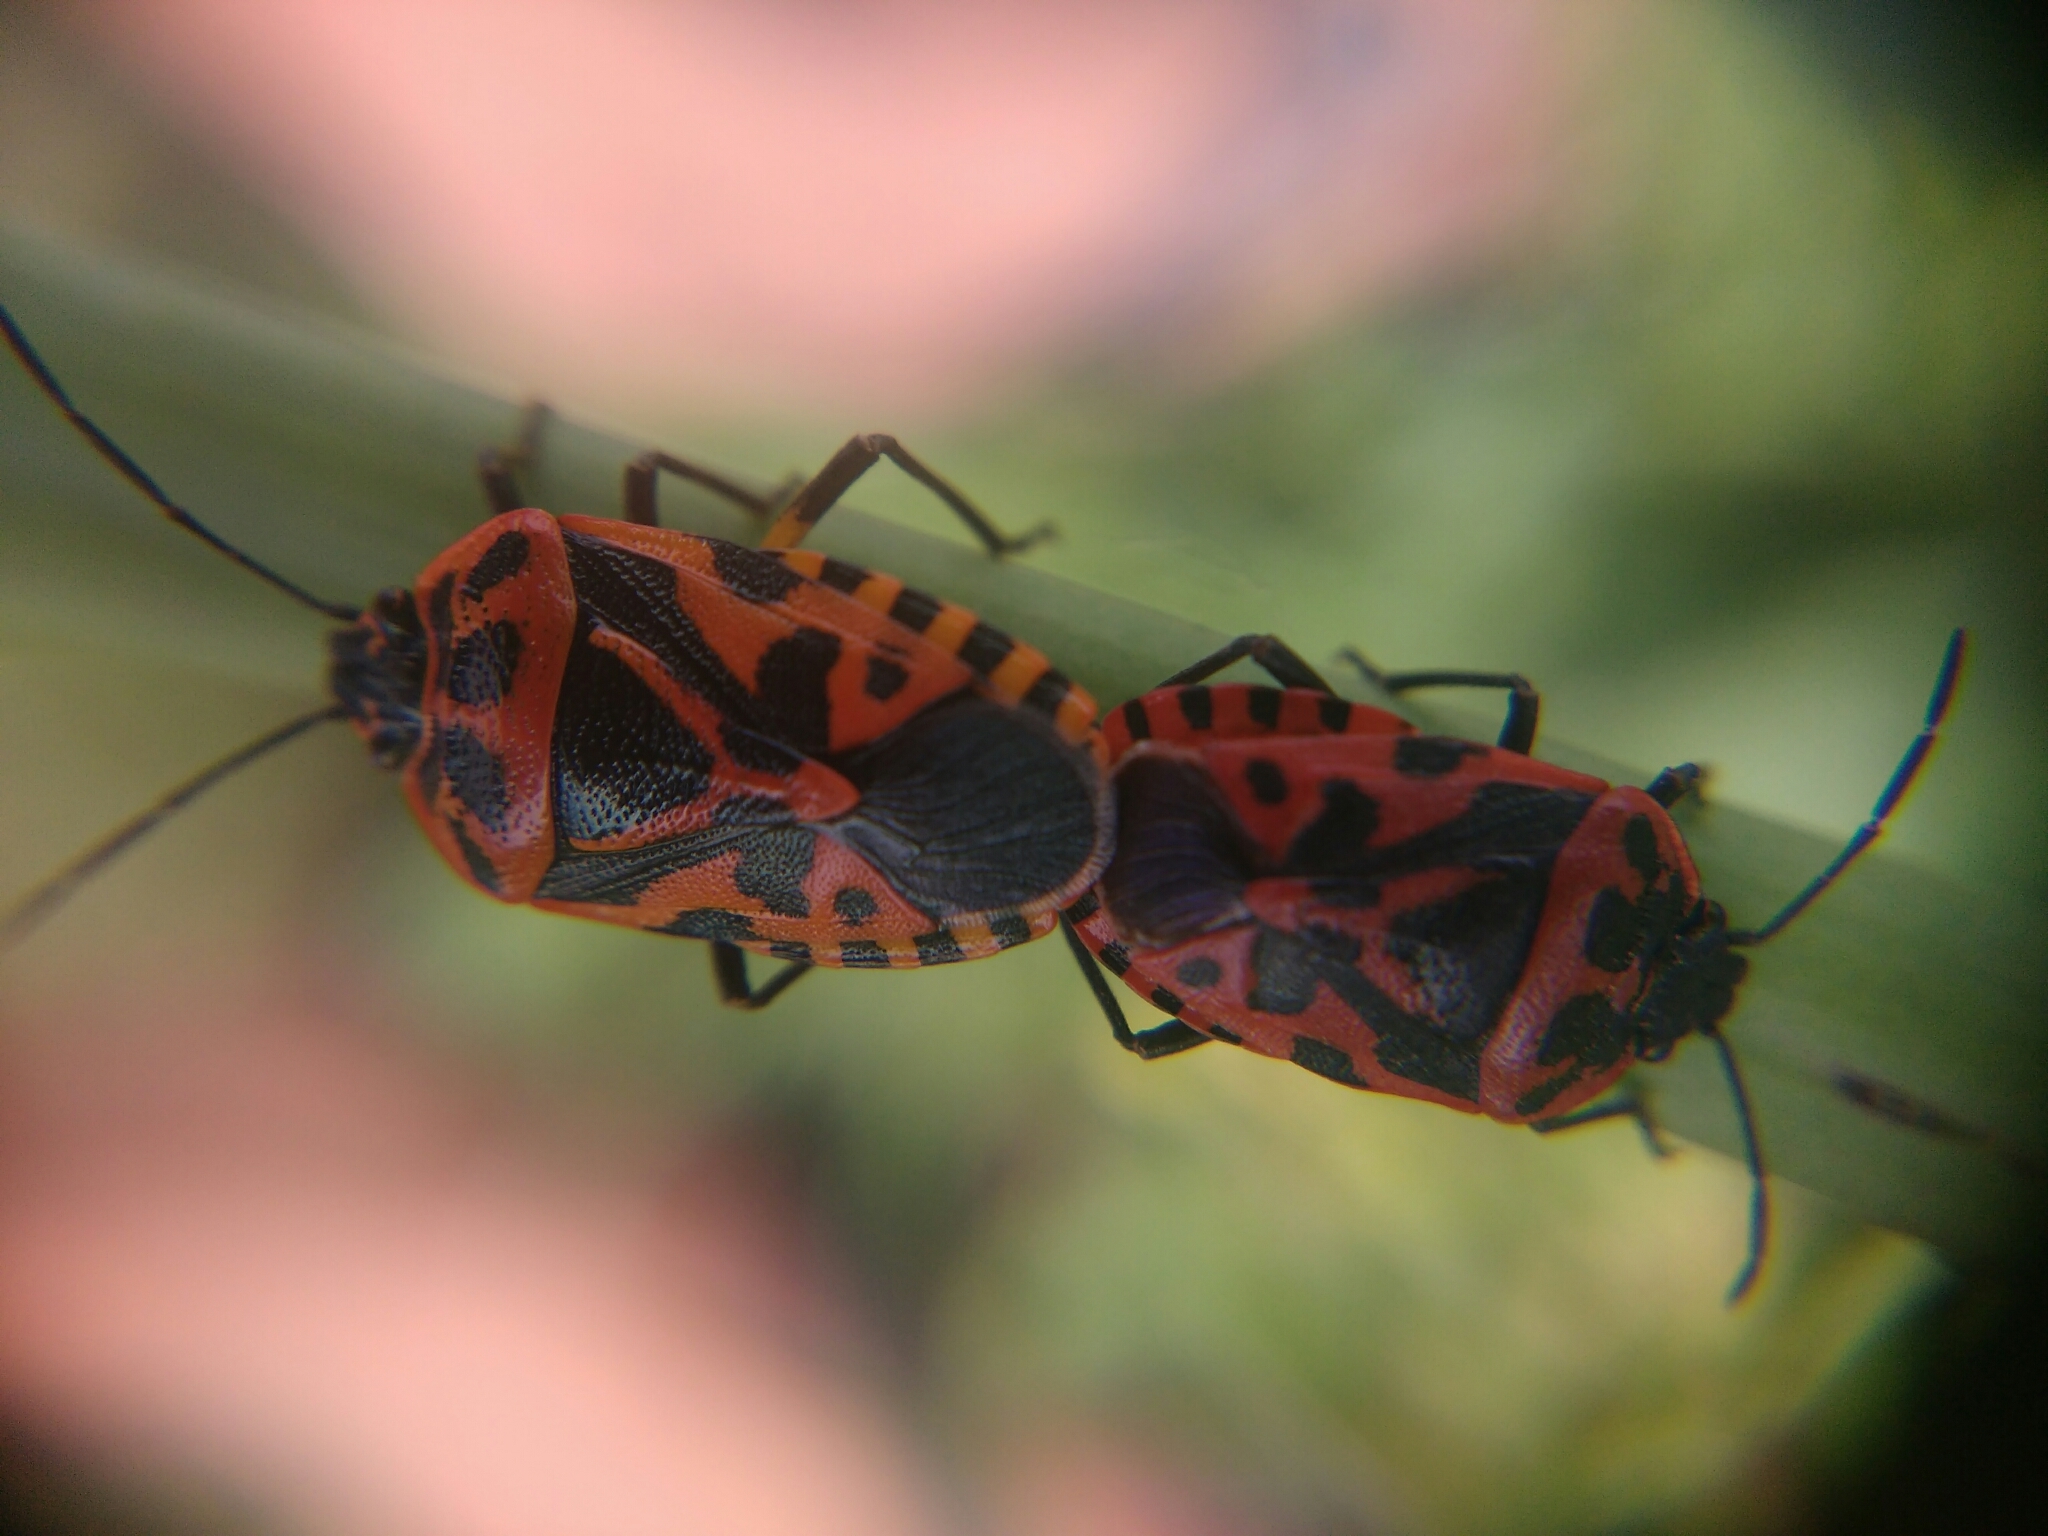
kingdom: Animalia
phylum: Arthropoda
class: Insecta
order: Hemiptera
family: Pentatomidae
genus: Eurydema
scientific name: Eurydema ventralis
